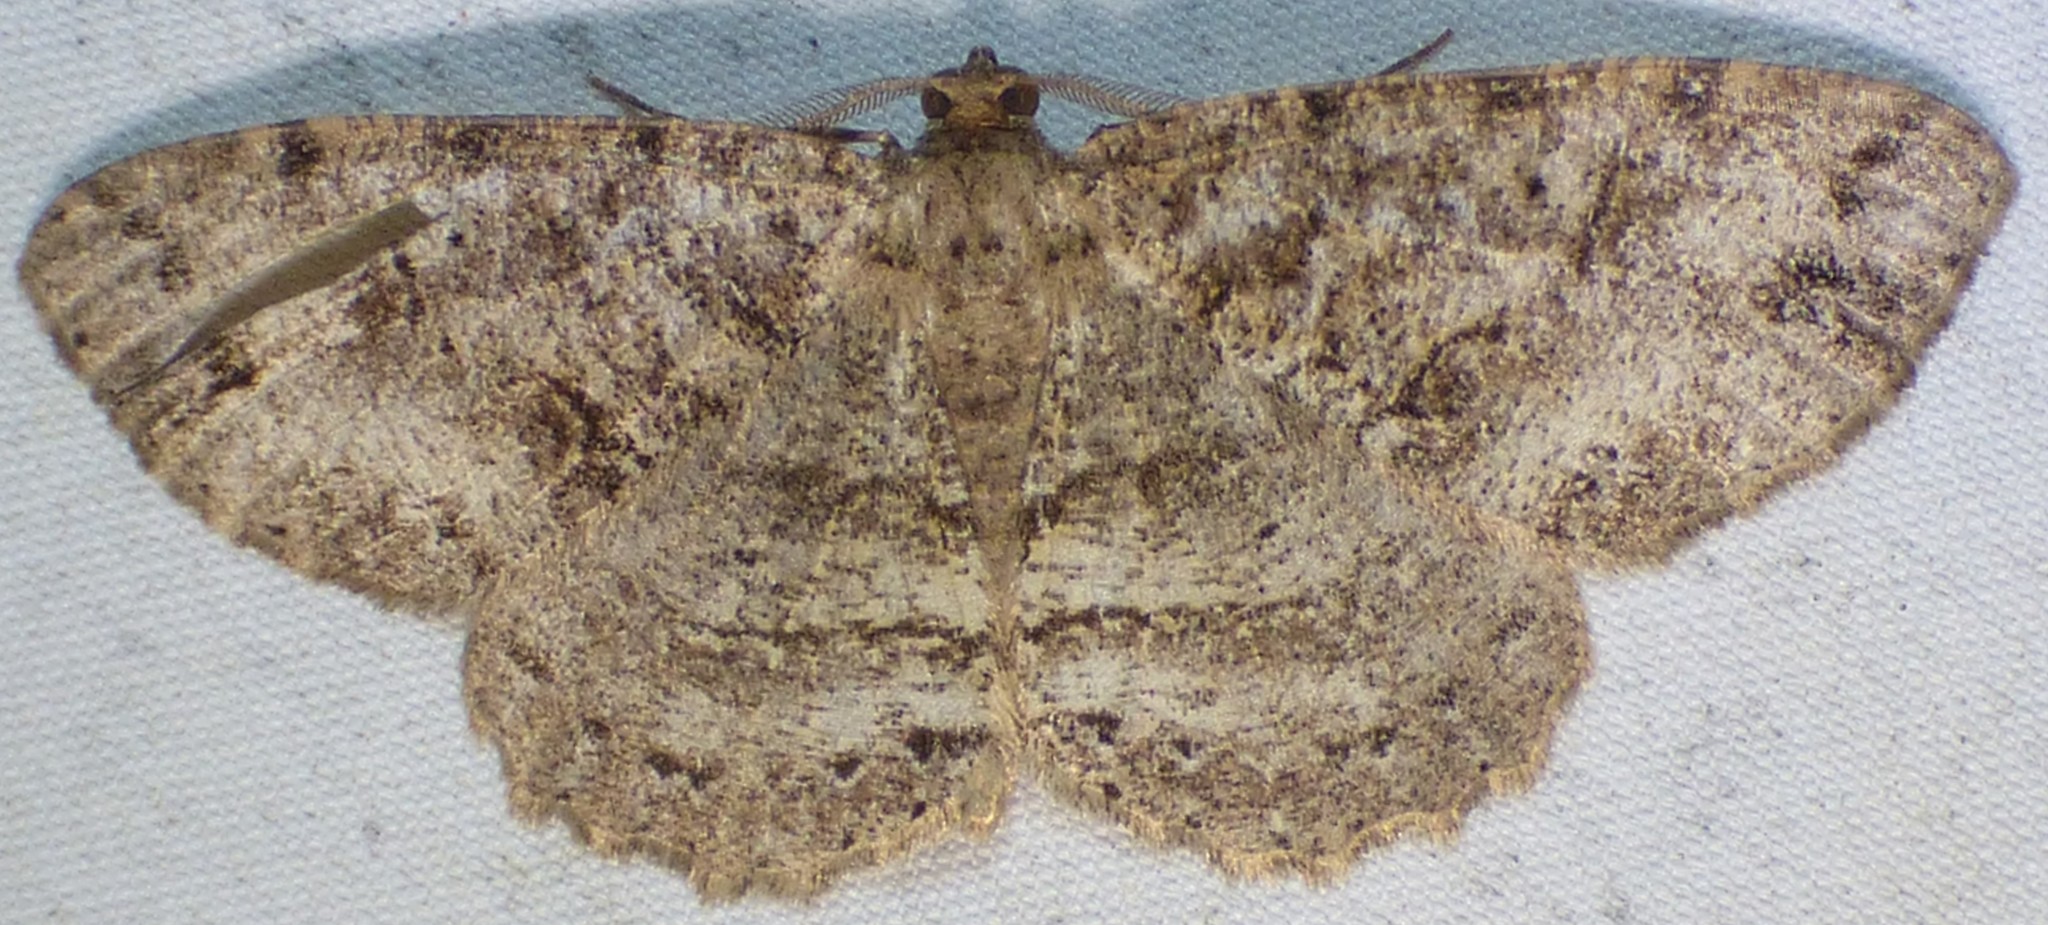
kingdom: Animalia
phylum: Arthropoda
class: Insecta
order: Lepidoptera
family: Geometridae
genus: Melanolophia
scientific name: Melanolophia canadaria
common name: Canadian melanolophia
